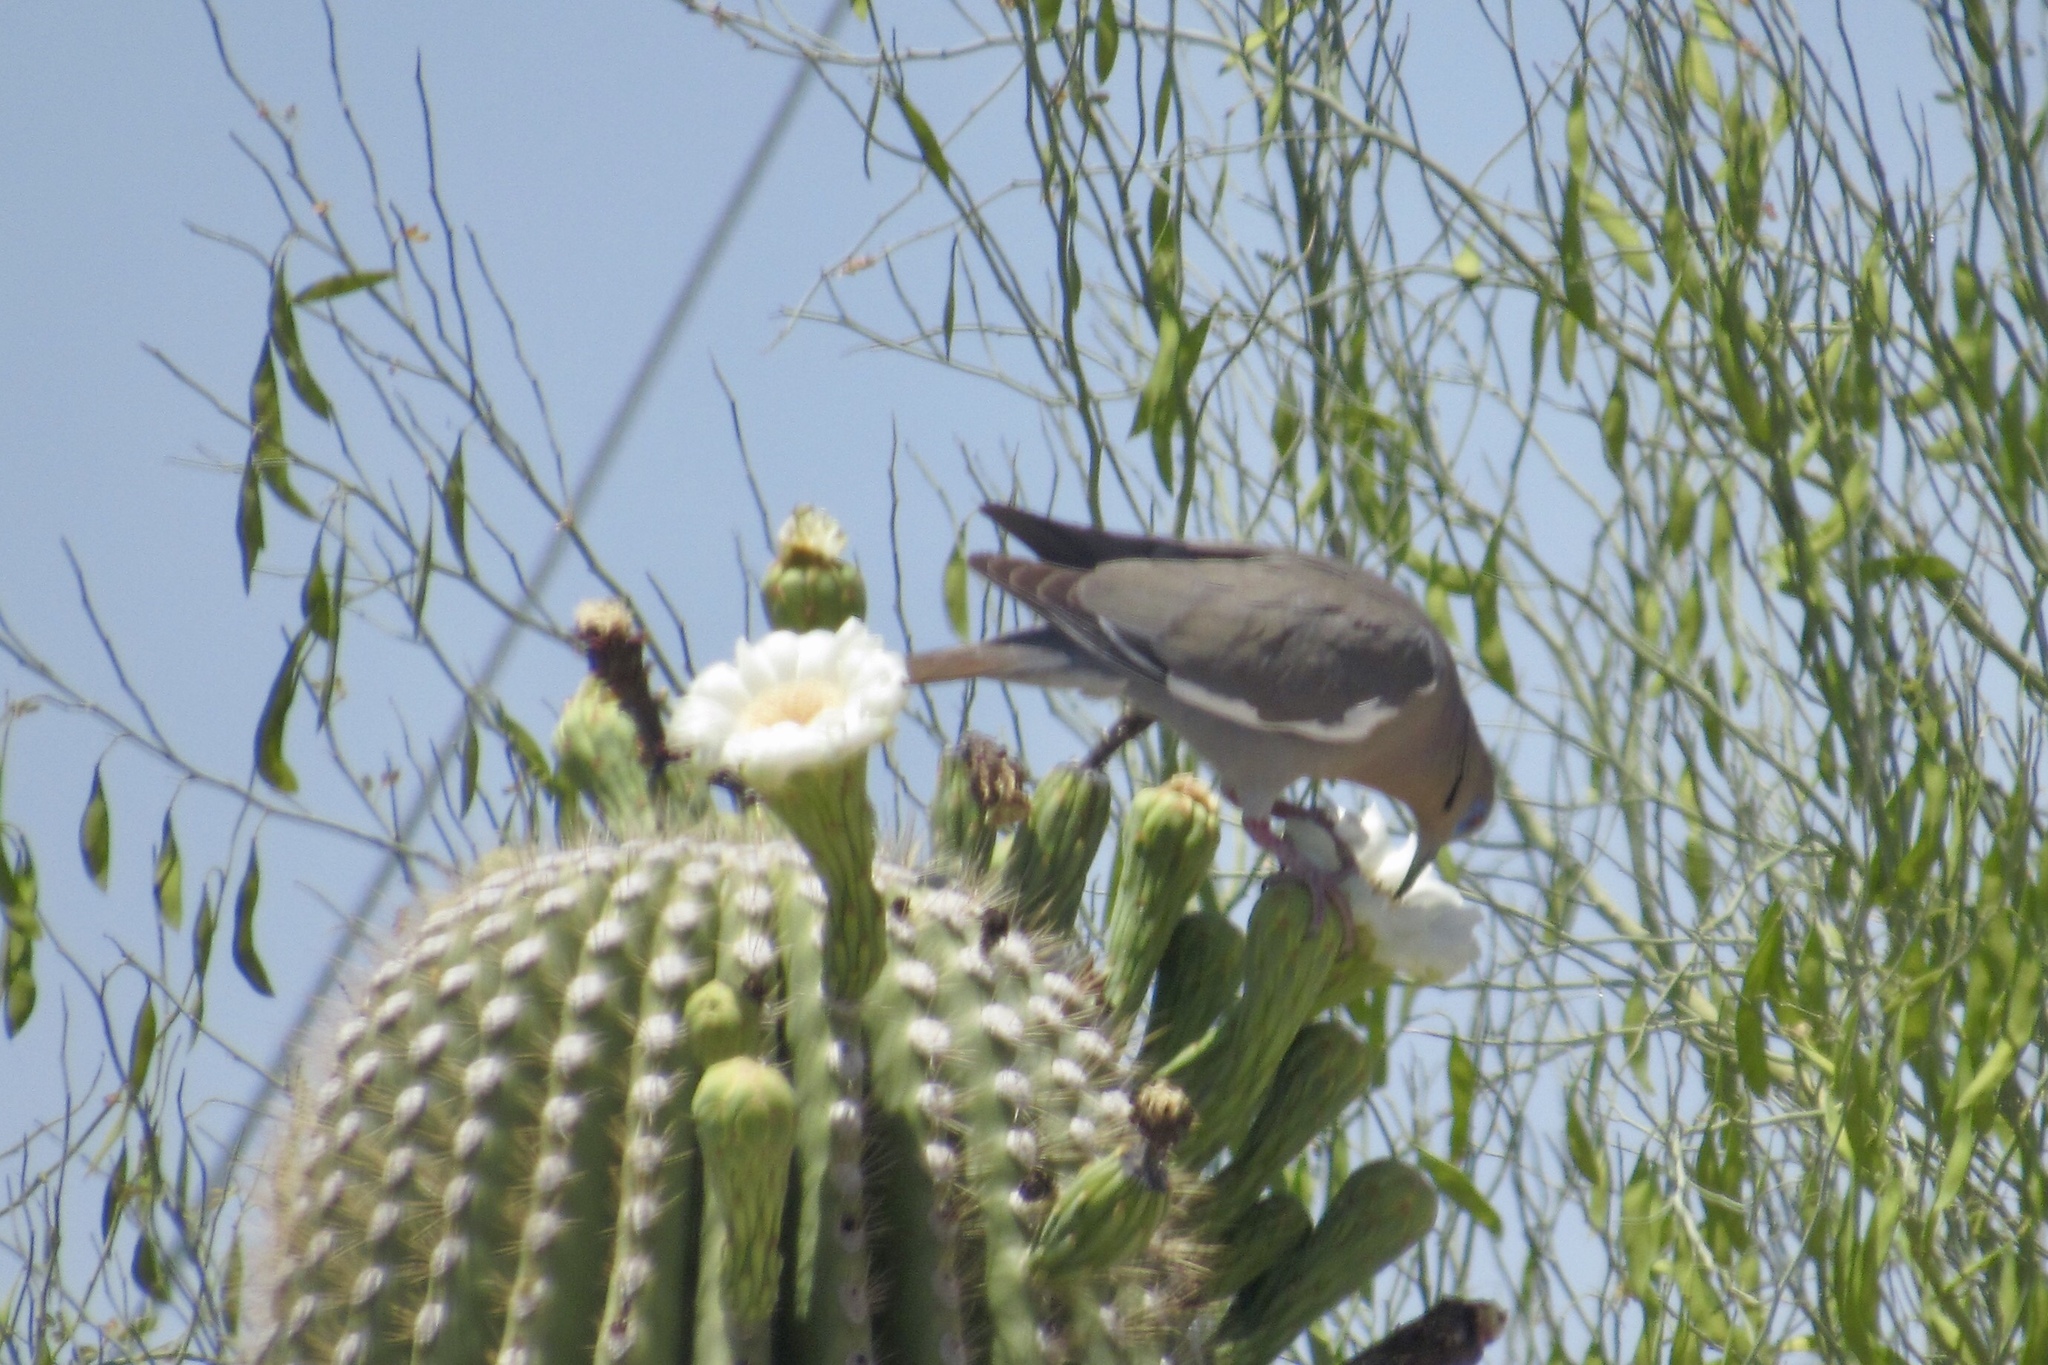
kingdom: Animalia
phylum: Chordata
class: Aves
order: Columbiformes
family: Columbidae
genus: Zenaida
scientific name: Zenaida asiatica
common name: White-winged dove
